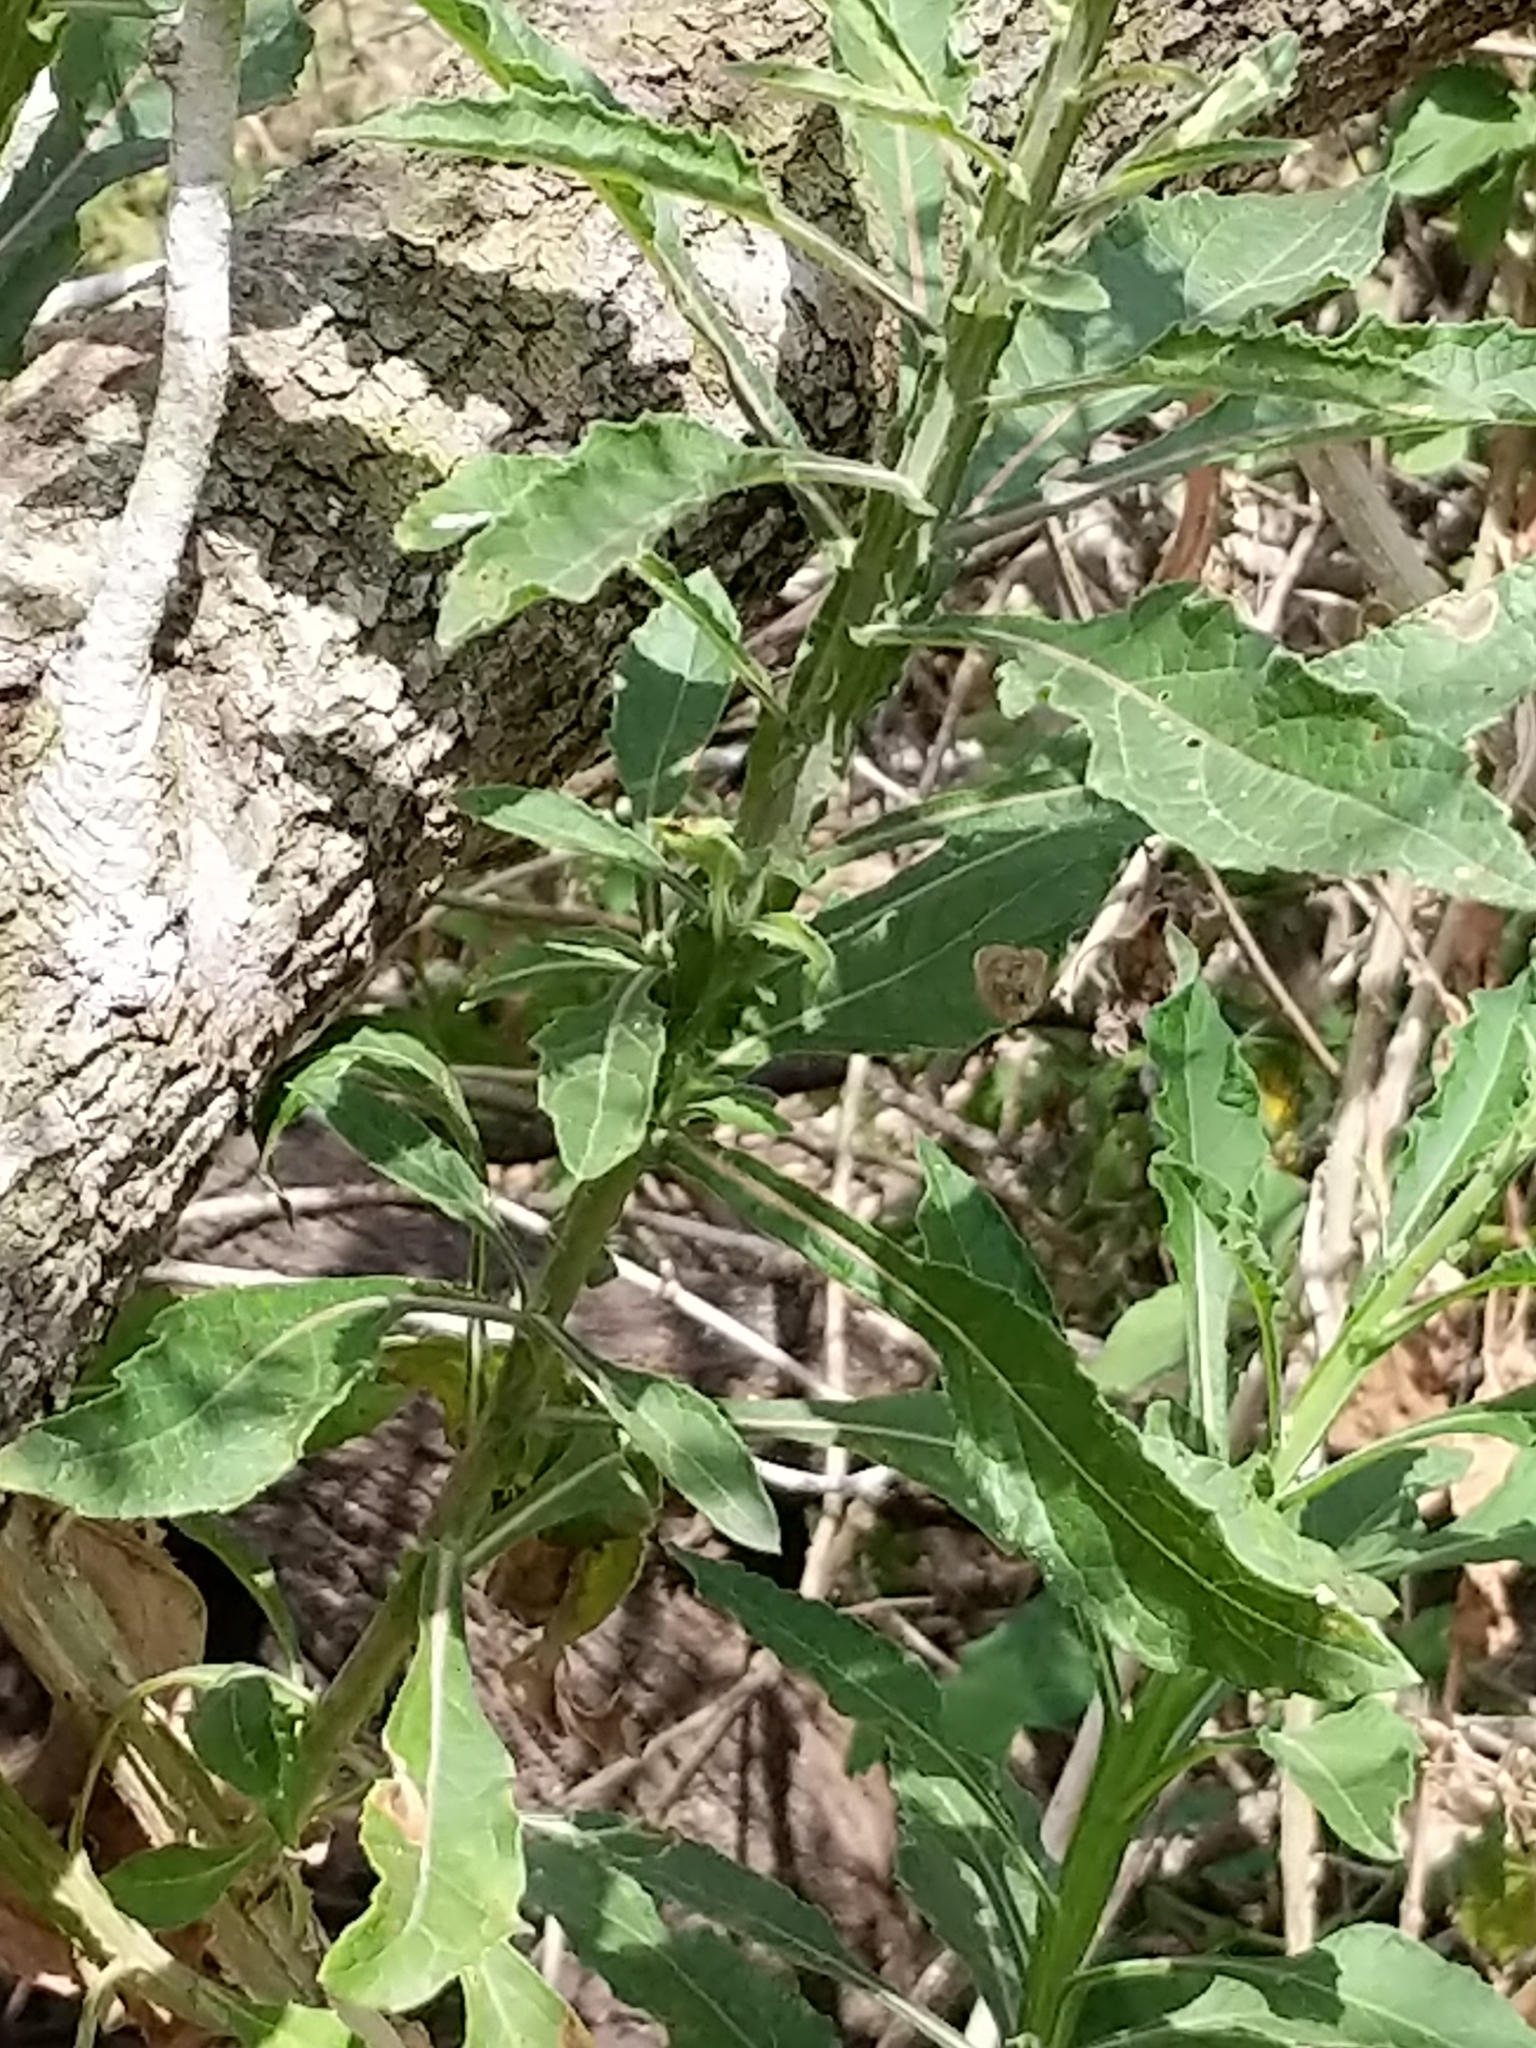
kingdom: Plantae
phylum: Tracheophyta
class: Magnoliopsida
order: Asterales
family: Asteraceae
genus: Verbesina
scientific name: Verbesina microptera
